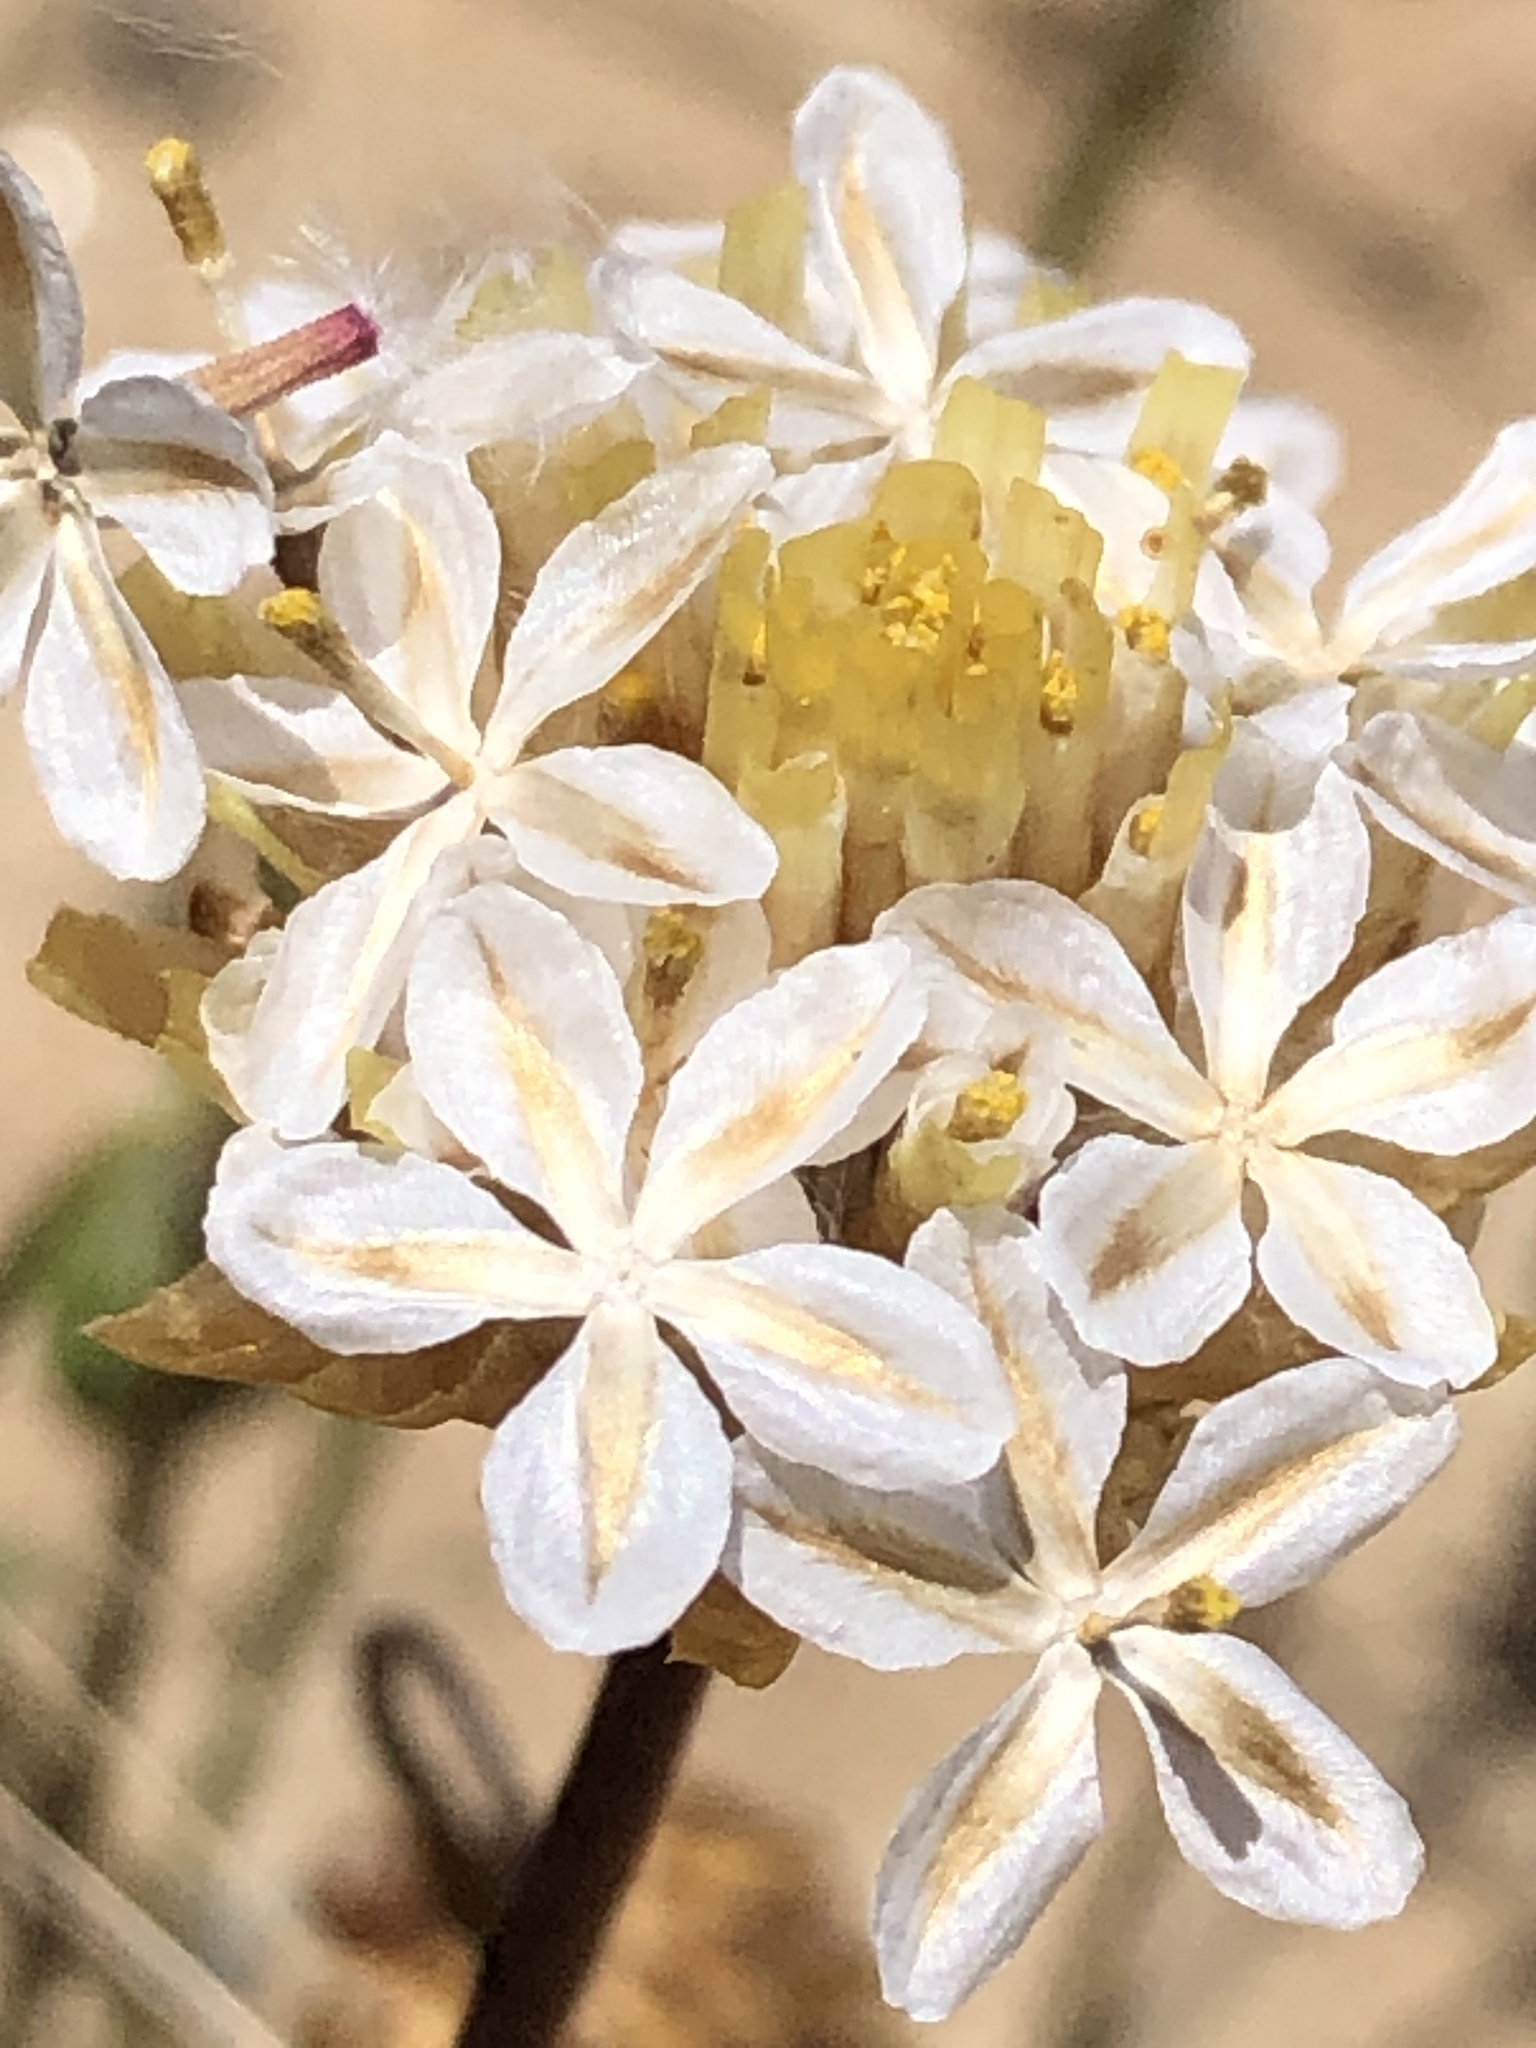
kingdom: Plantae
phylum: Tracheophyta
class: Magnoliopsida
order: Asterales
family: Asteraceae
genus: Ursinia
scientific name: Ursinia anthemoides
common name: Ursinia
